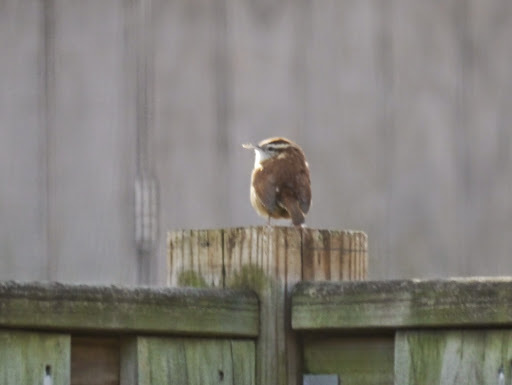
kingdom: Animalia
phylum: Chordata
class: Aves
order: Passeriformes
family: Troglodytidae
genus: Thryothorus
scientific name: Thryothorus ludovicianus
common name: Carolina wren
